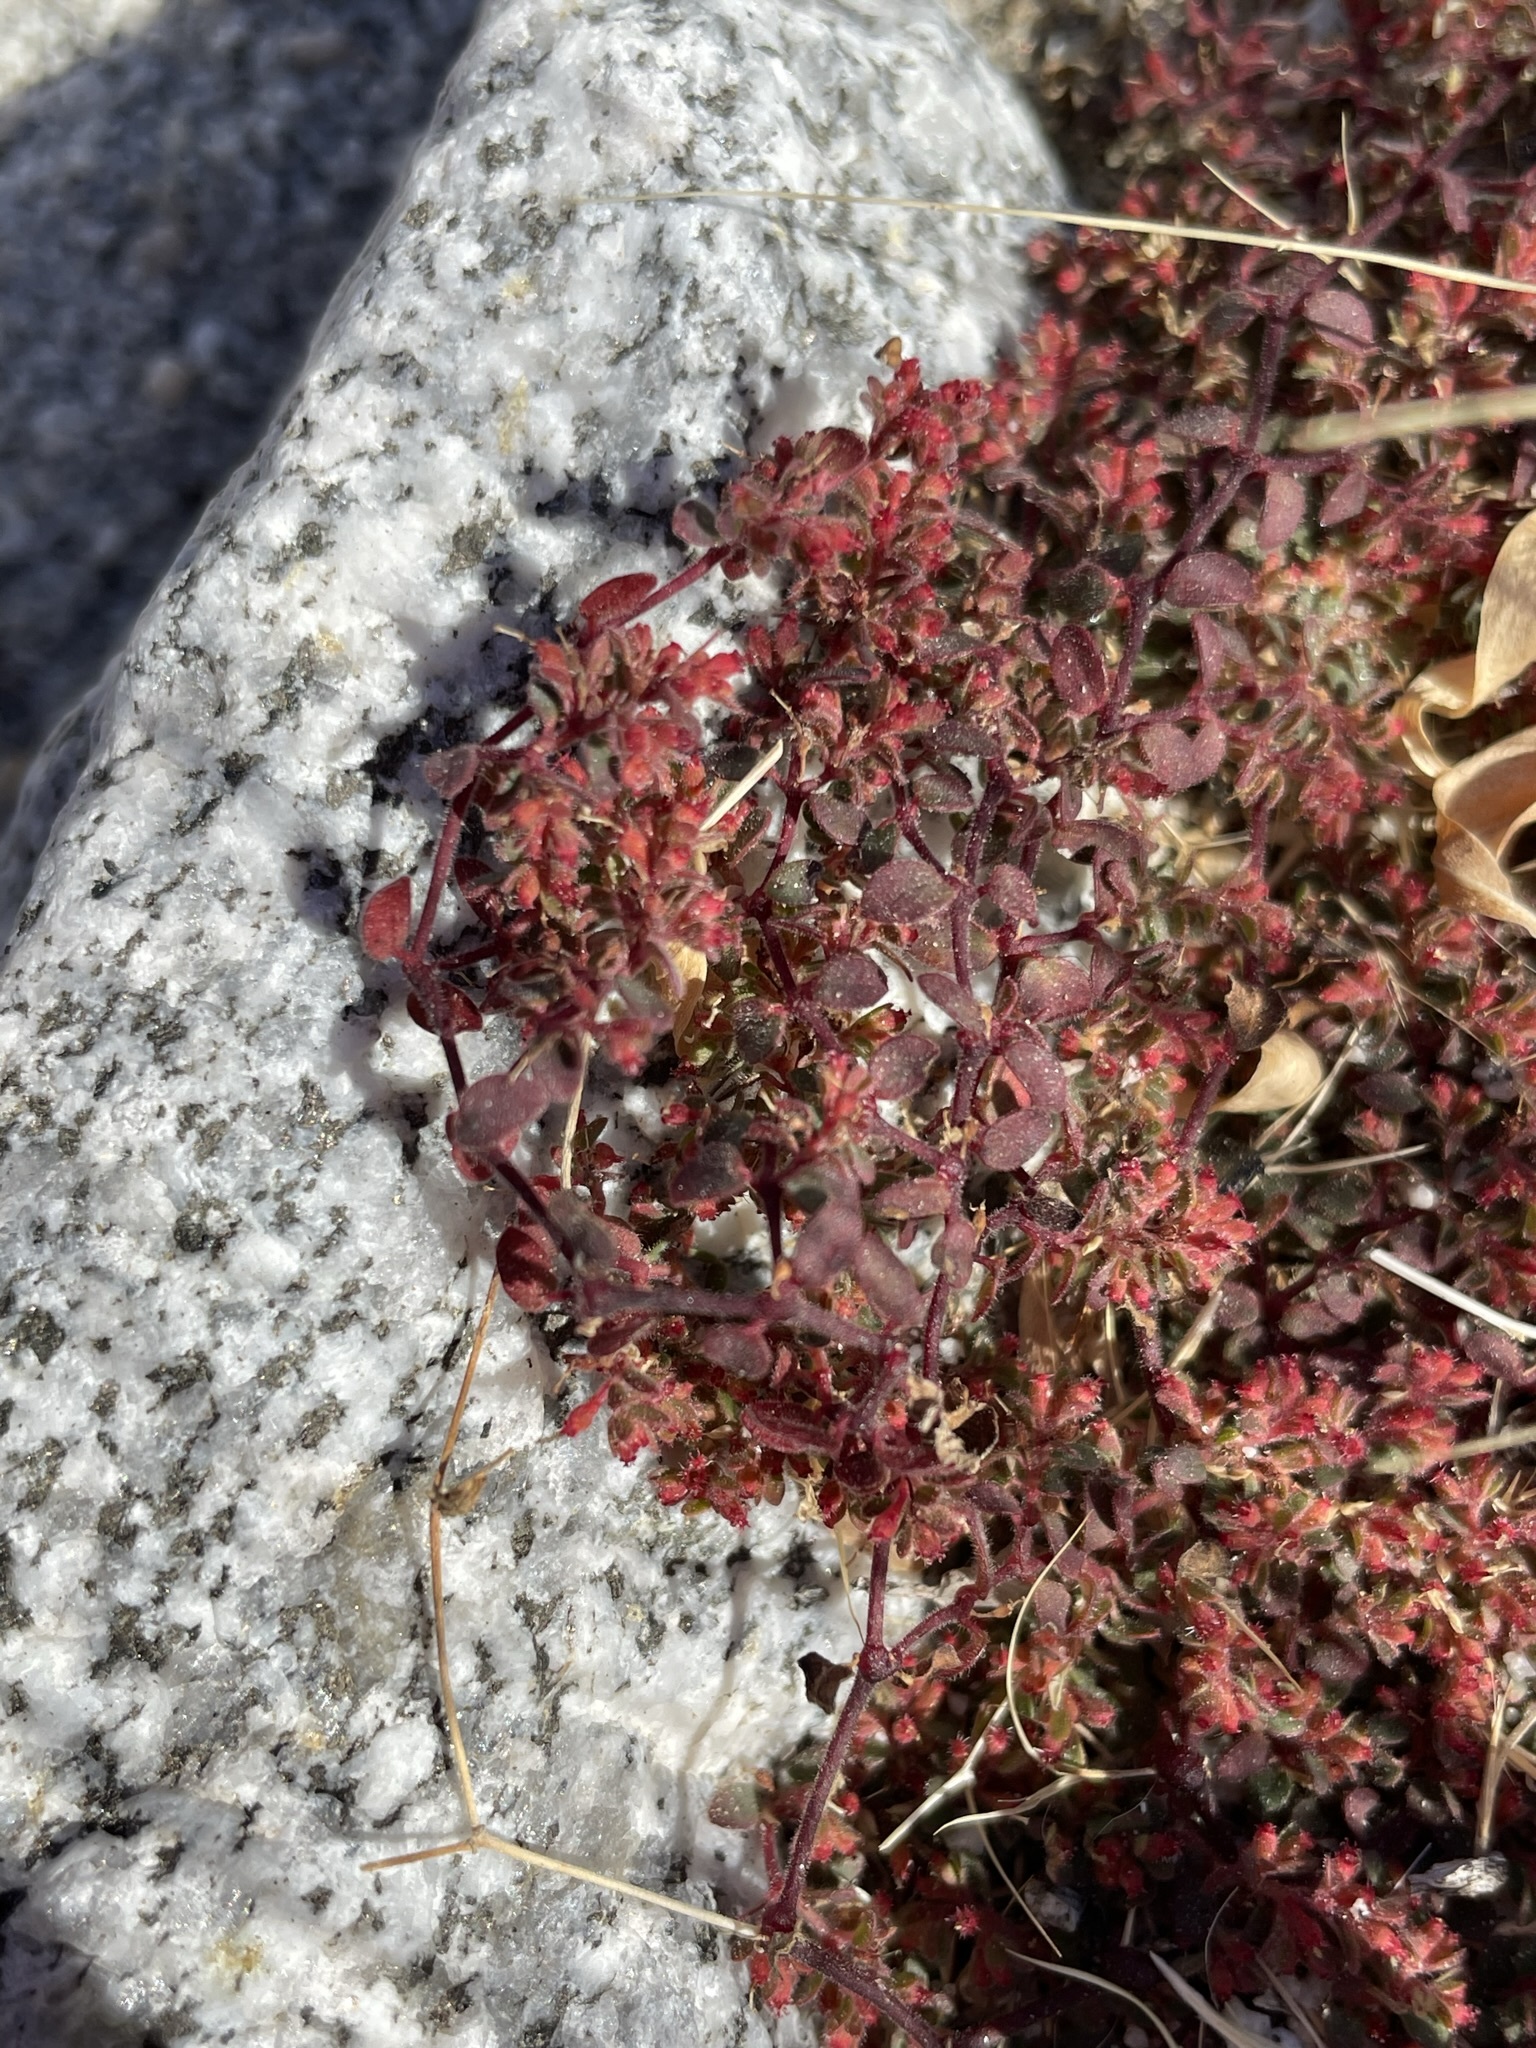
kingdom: Plantae
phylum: Tracheophyta
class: Magnoliopsida
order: Malpighiales
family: Euphorbiaceae
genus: Euphorbia
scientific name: Euphorbia setiloba
